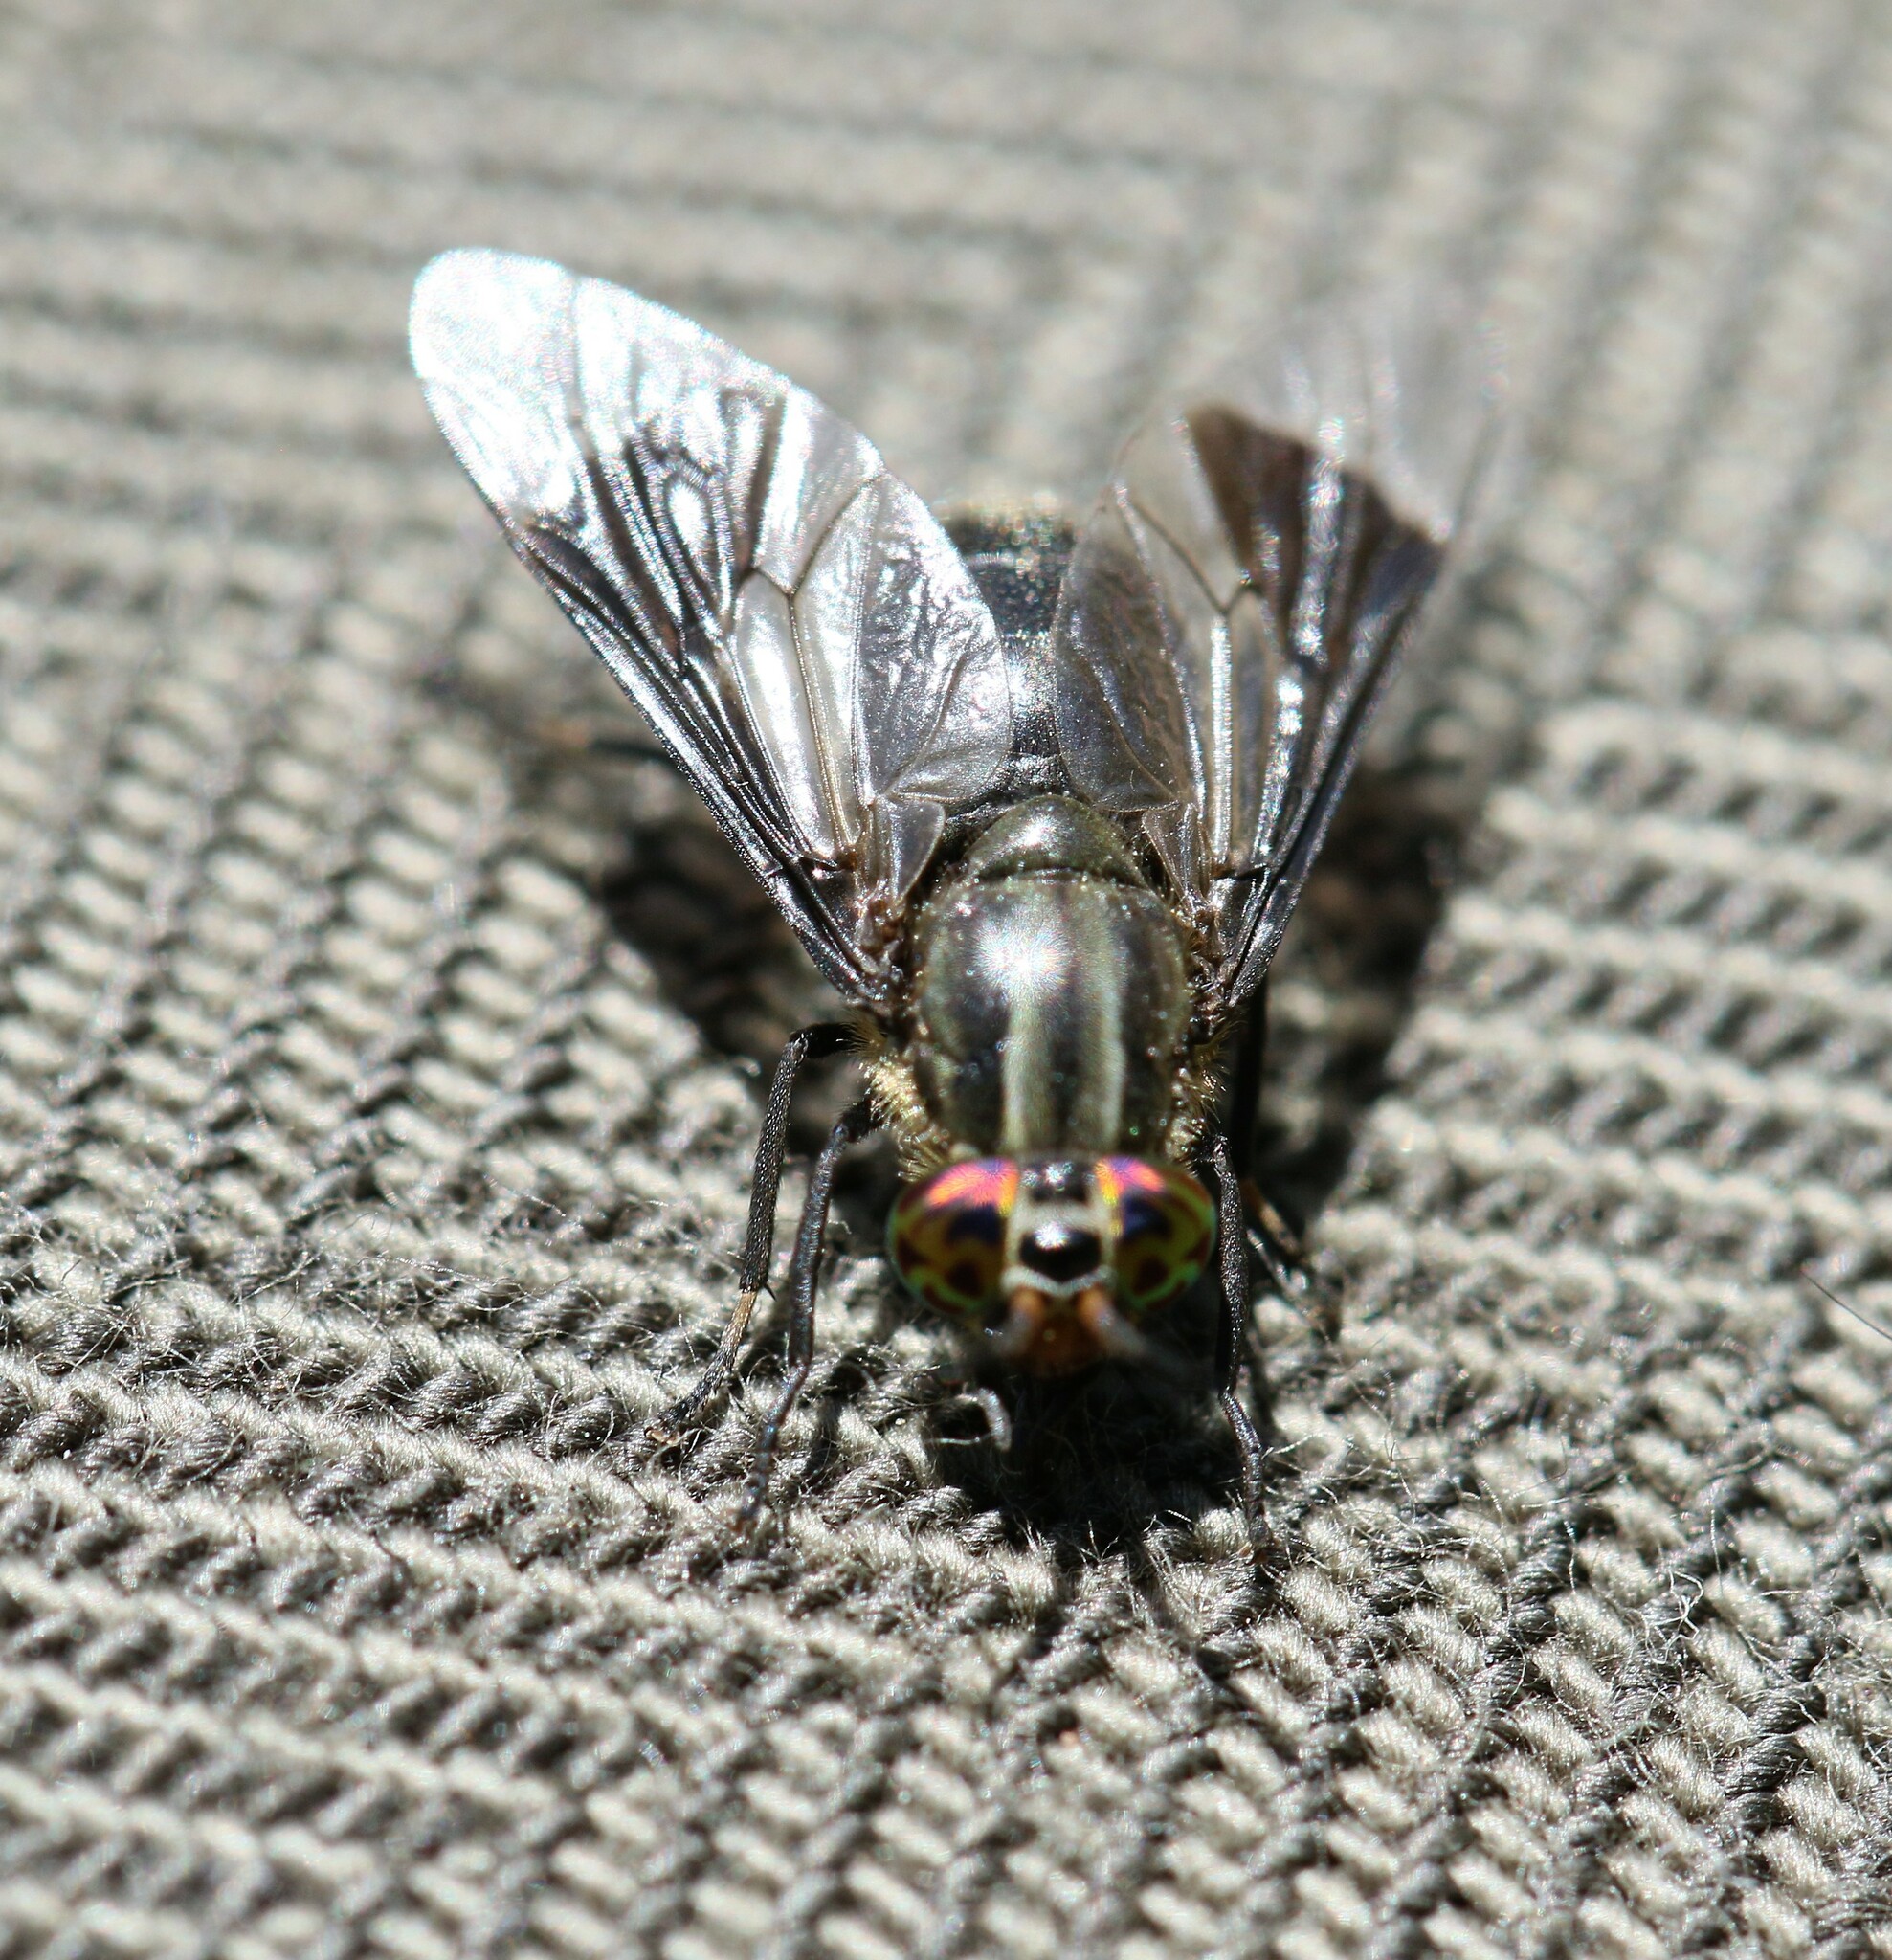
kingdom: Animalia
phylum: Arthropoda
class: Insecta
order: Diptera
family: Tabanidae
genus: Chrysops
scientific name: Chrysops niger
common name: Black deer fly
